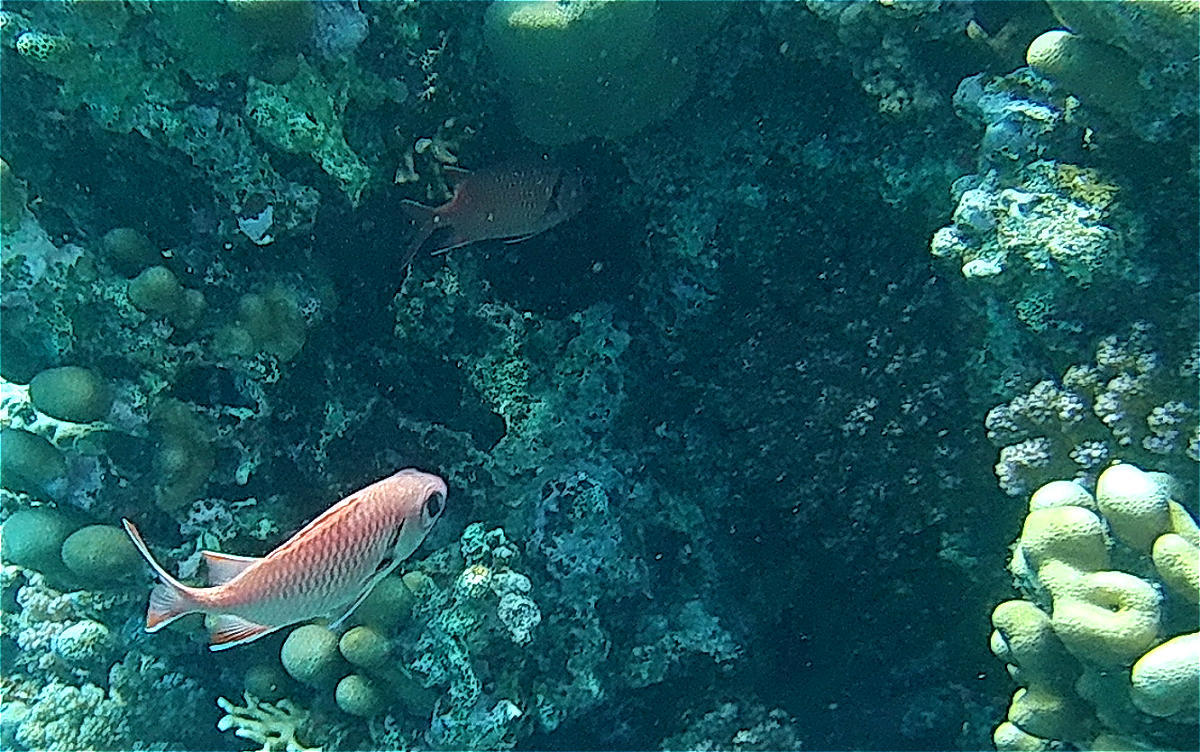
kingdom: Animalia
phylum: Chordata
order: Beryciformes
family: Holocentridae
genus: Myripristis
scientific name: Myripristis murdjan
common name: Big-eye soldierfish
